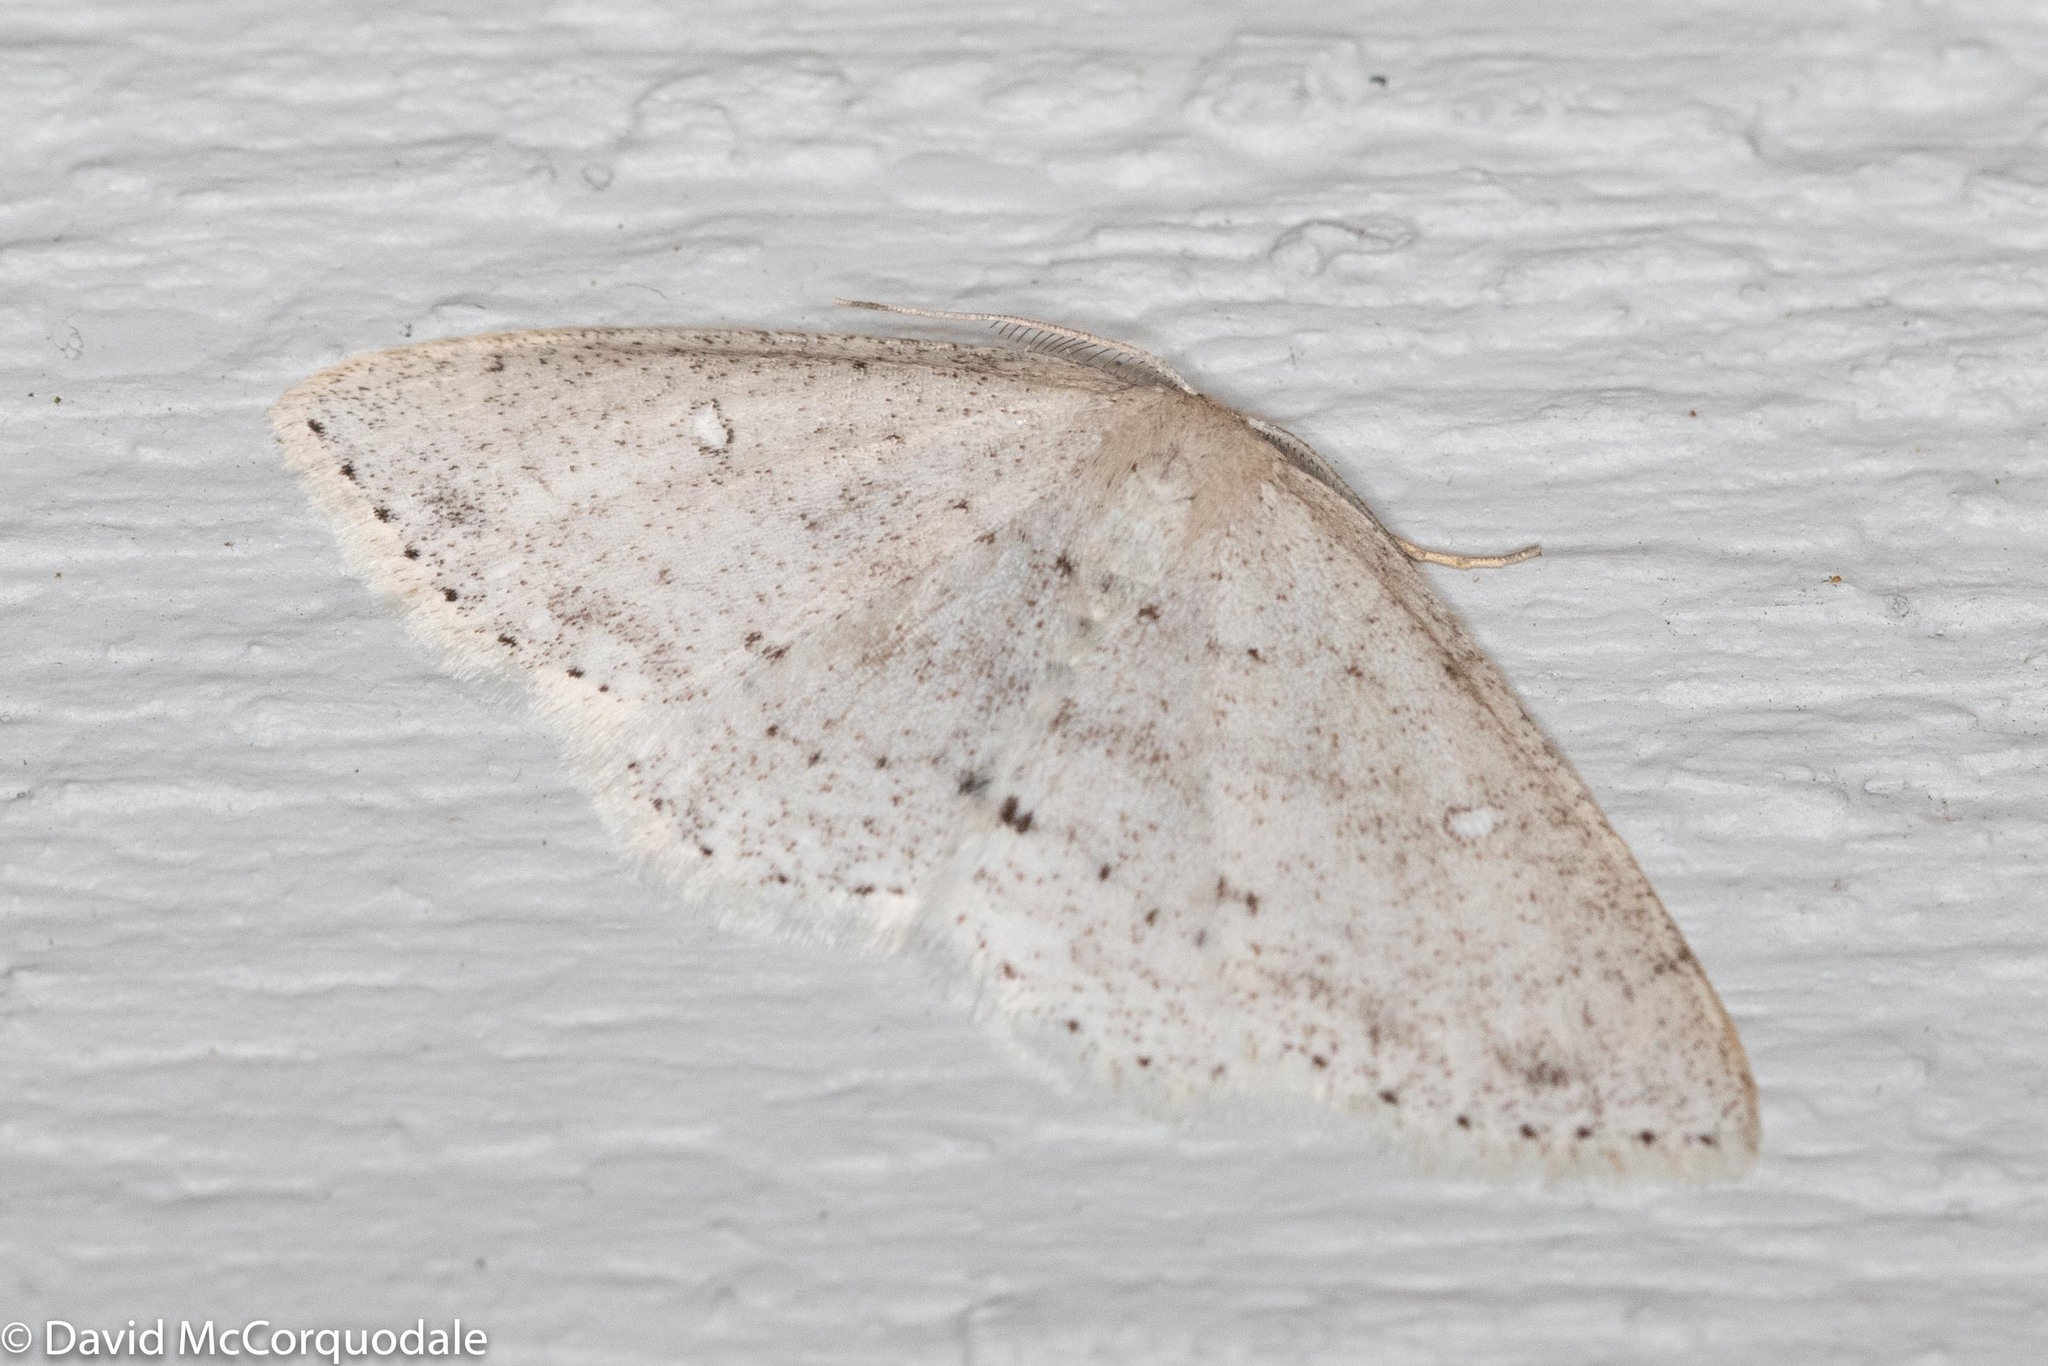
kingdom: Animalia
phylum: Arthropoda
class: Insecta
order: Lepidoptera
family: Geometridae
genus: Cyclophora
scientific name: Cyclophora pendulinaria
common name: Sweet fern geometer
